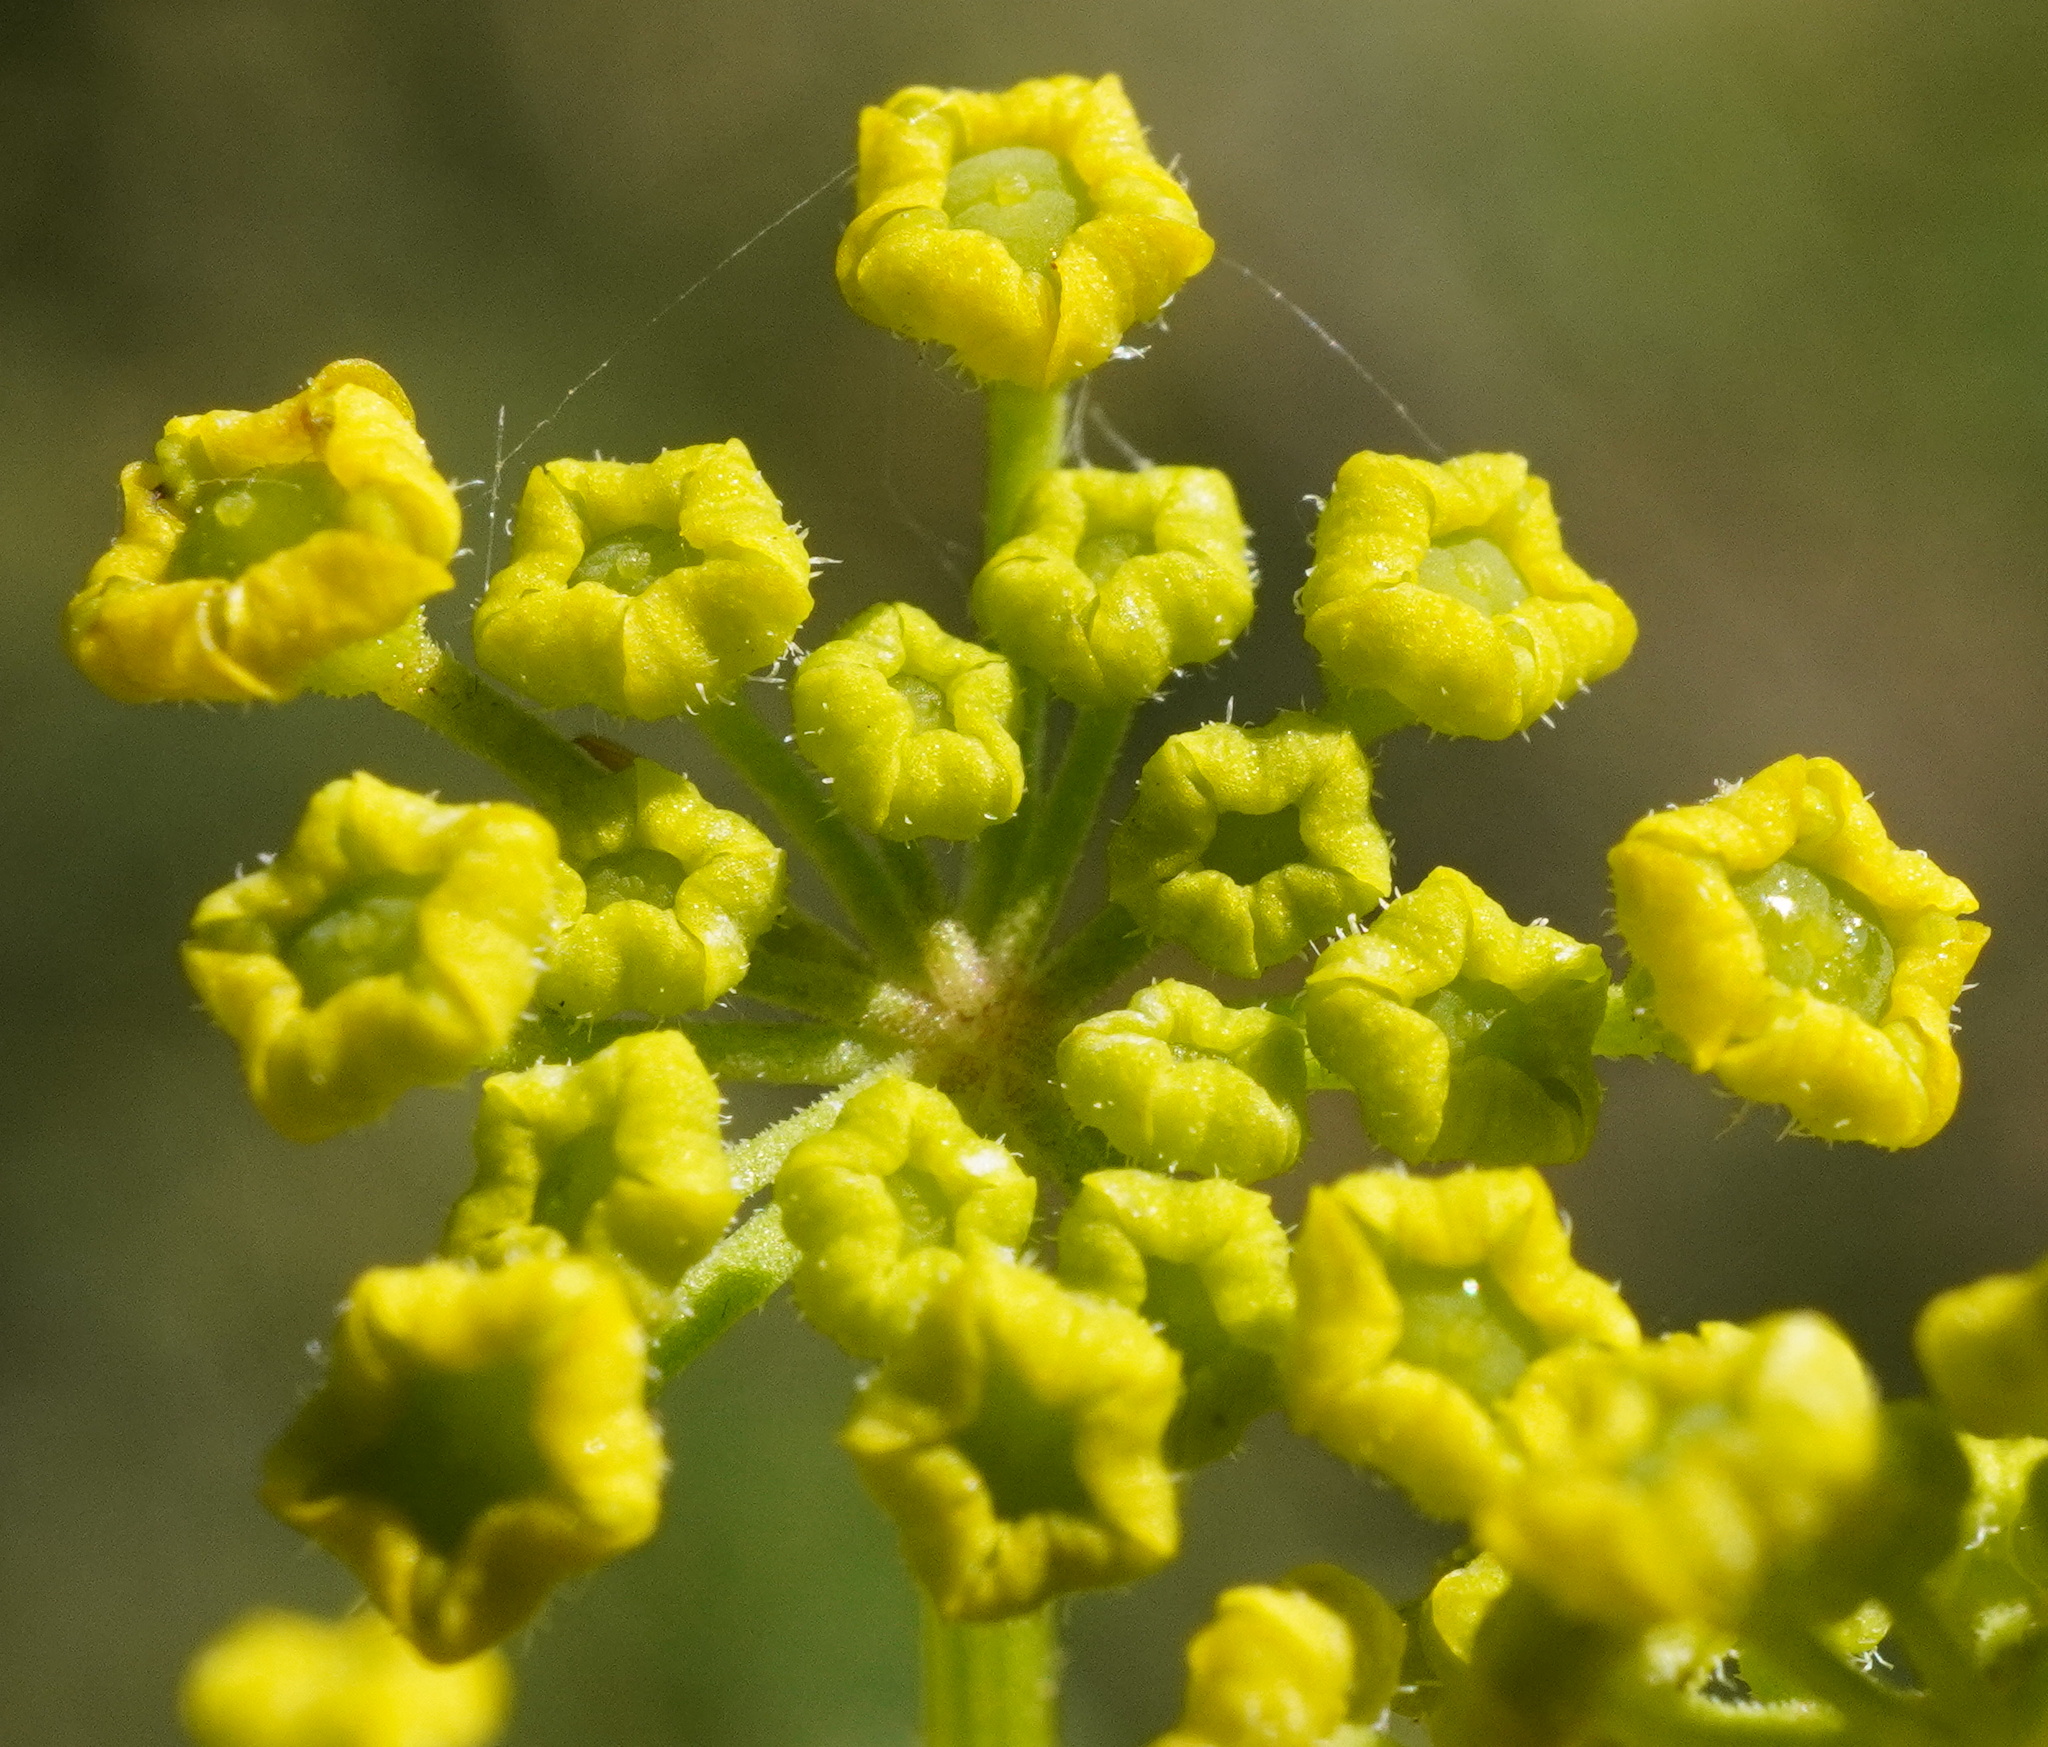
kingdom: Plantae
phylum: Tracheophyta
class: Magnoliopsida
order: Apiales
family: Apiaceae
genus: Pastinaca
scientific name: Pastinaca sativa
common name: Wild parsnip
